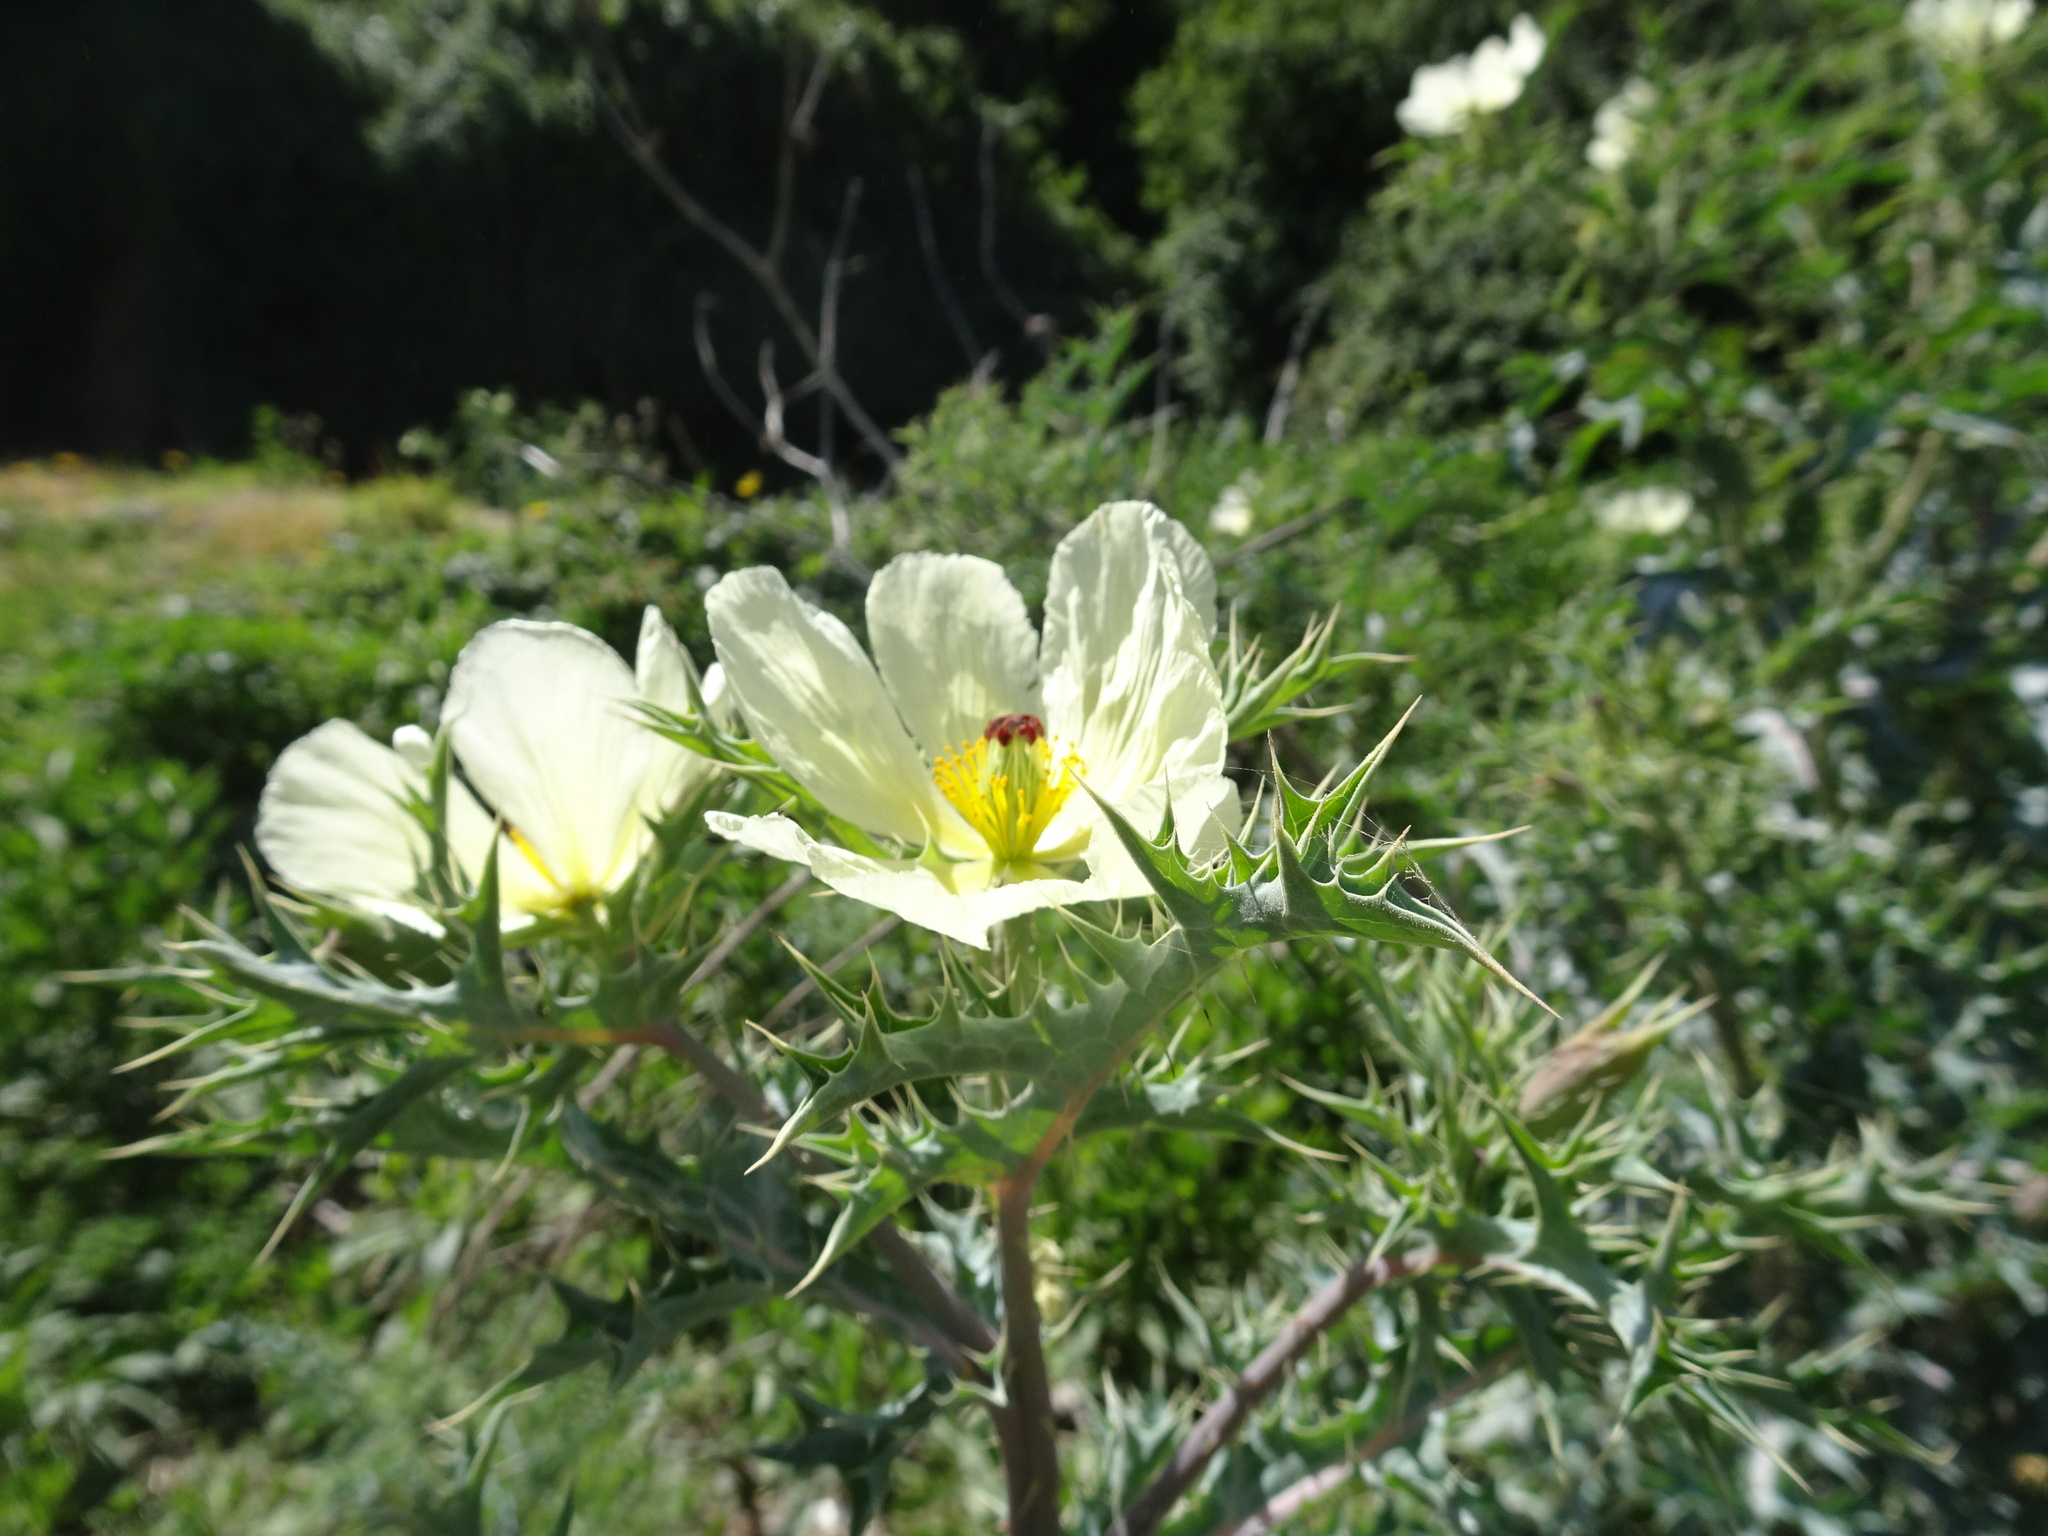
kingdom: Plantae
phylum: Tracheophyta
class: Magnoliopsida
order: Ranunculales
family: Papaveraceae
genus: Argemone
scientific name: Argemone ochroleuca
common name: White-flower mexican-poppy
